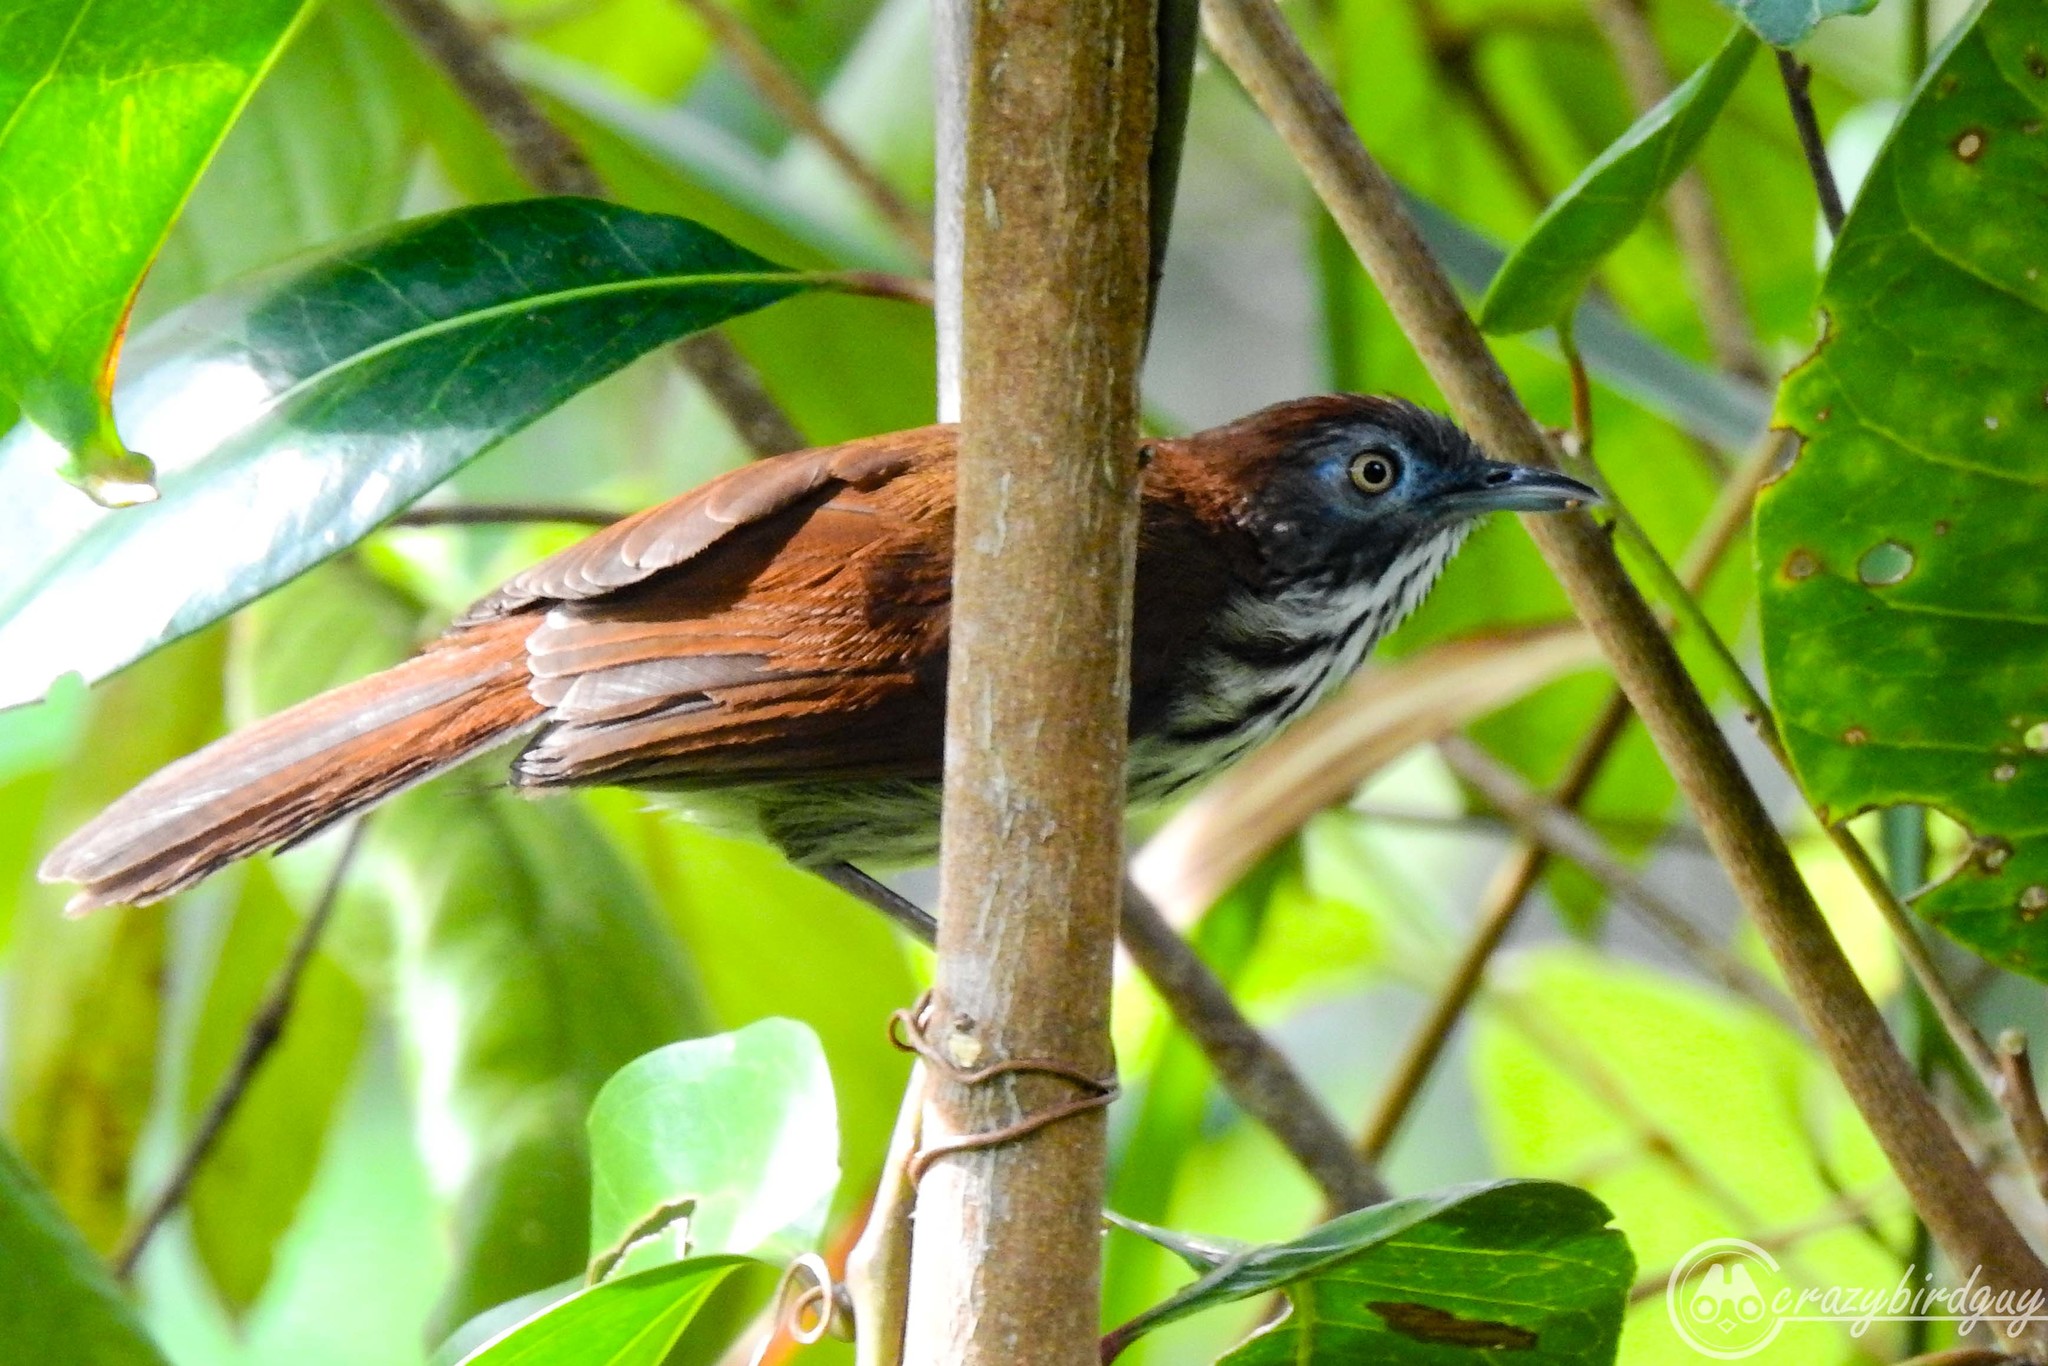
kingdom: Animalia
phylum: Chordata
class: Aves
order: Passeriformes
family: Timaliidae
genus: Macronus
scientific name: Macronus bornensis
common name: Bold-striped tit-babbler
